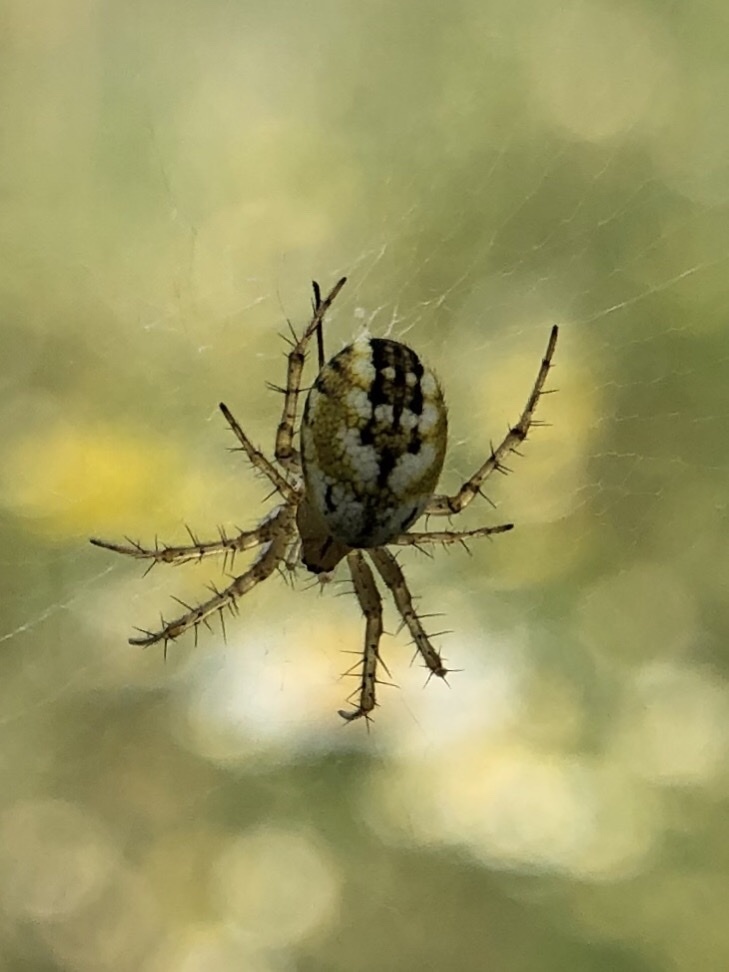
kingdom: Animalia
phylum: Arthropoda
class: Arachnida
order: Araneae
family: Araneidae
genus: Mangora
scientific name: Mangora acalypha
